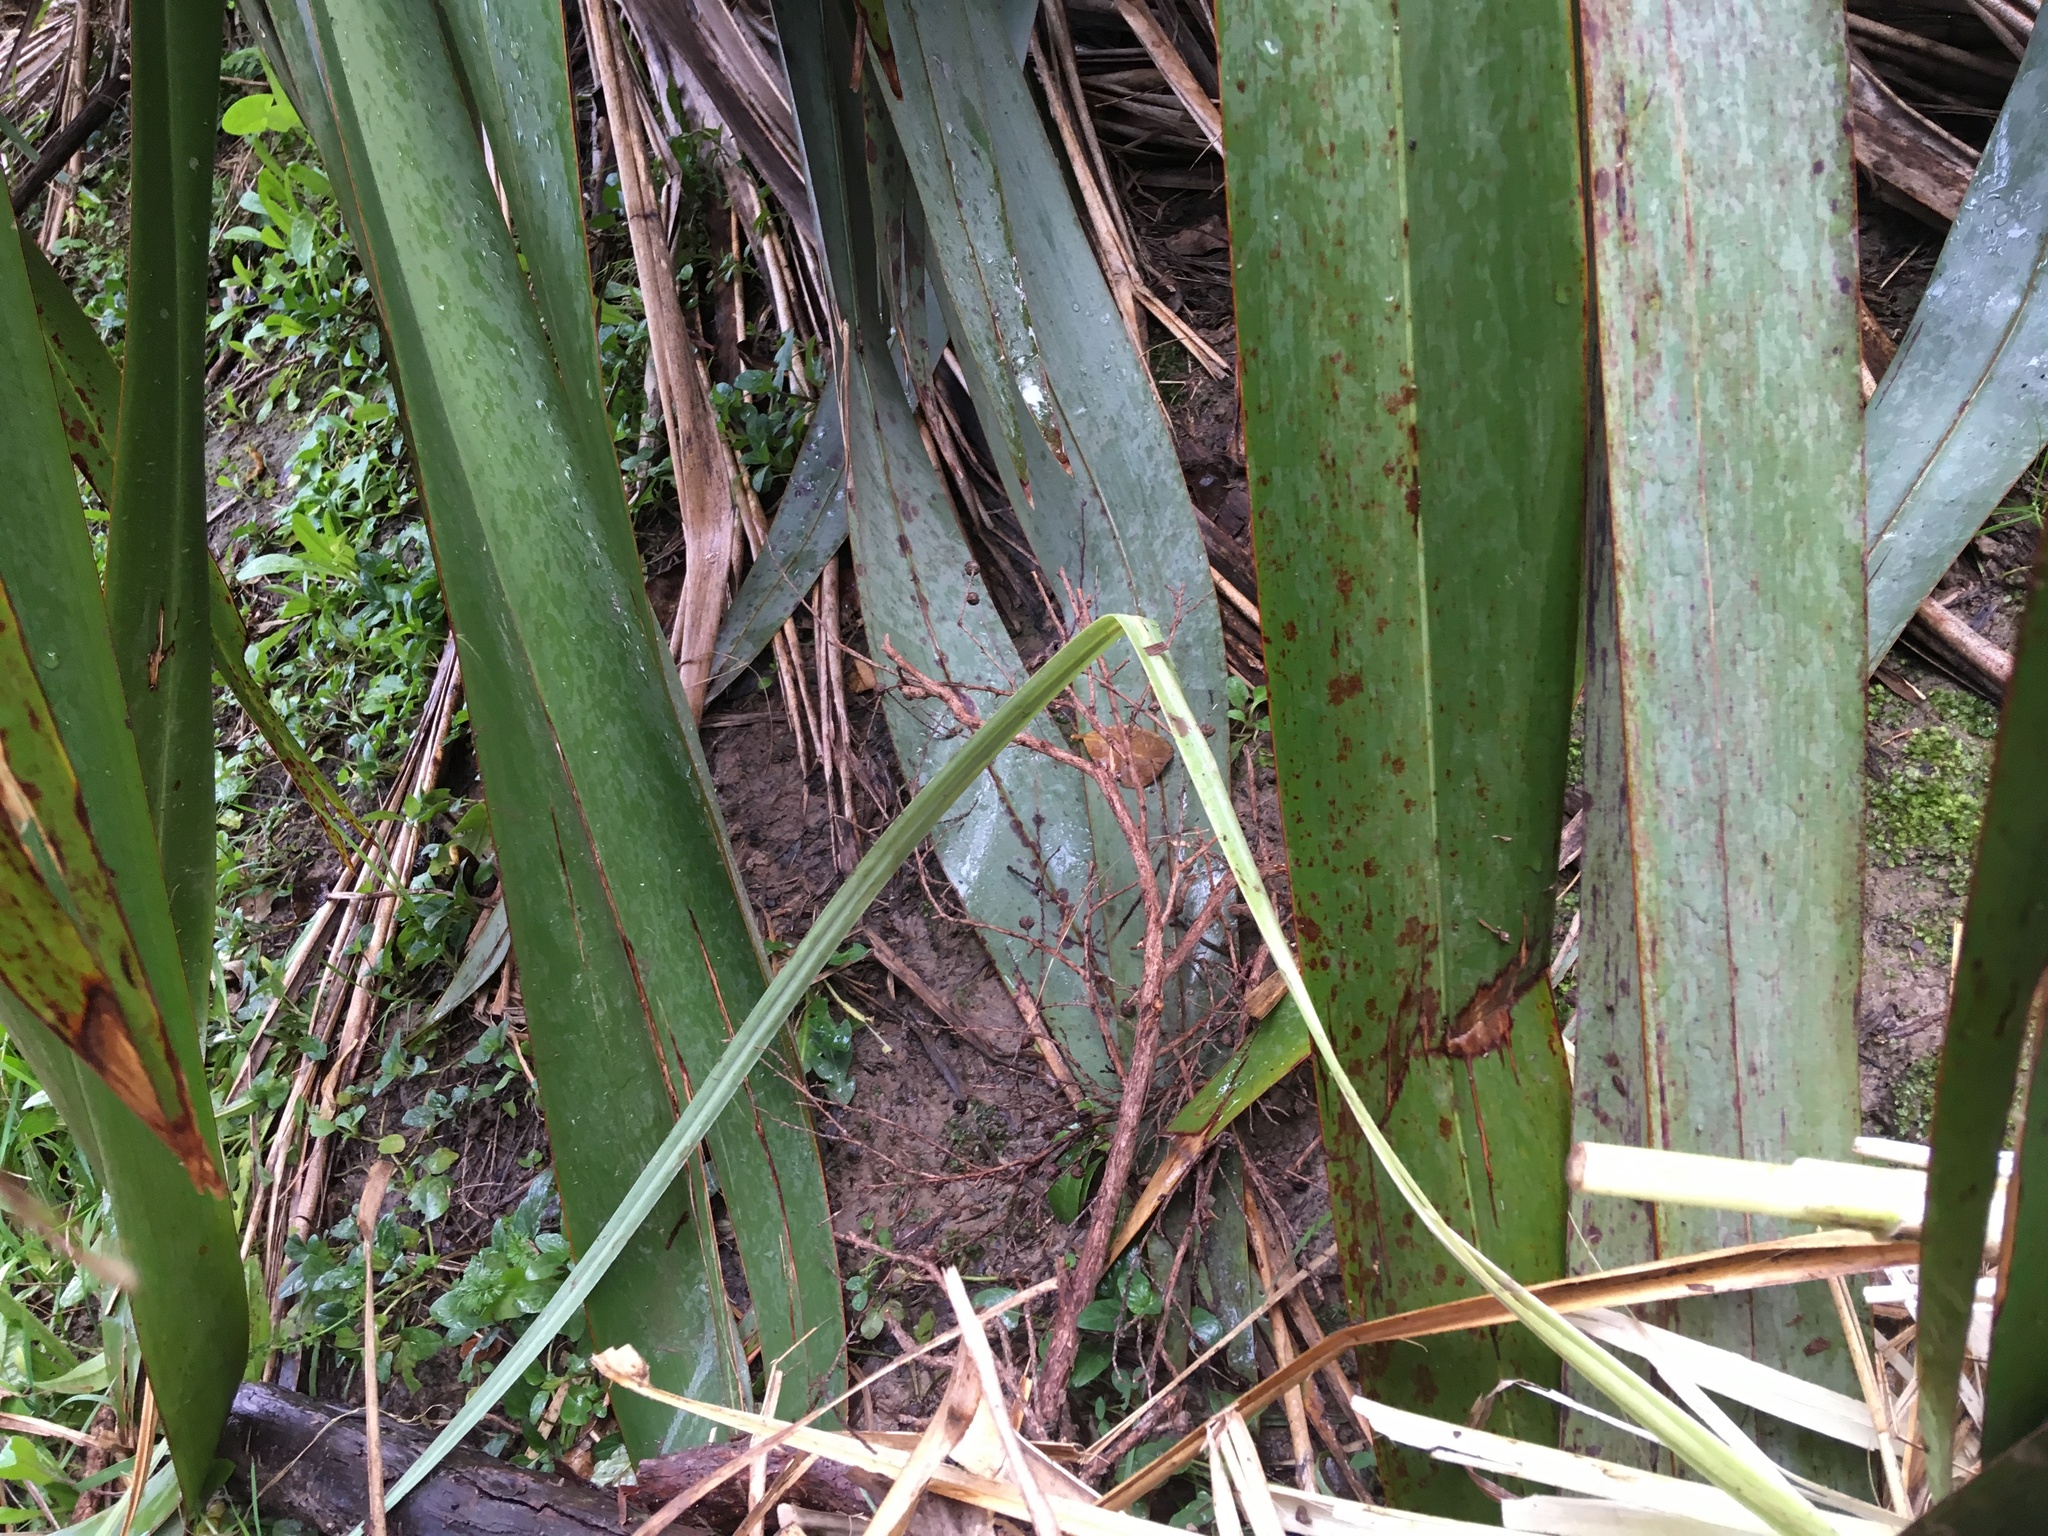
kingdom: Plantae
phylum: Tracheophyta
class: Magnoliopsida
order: Asterales
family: Asteraceae
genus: Bellis
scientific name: Bellis perennis
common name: Lawndaisy
